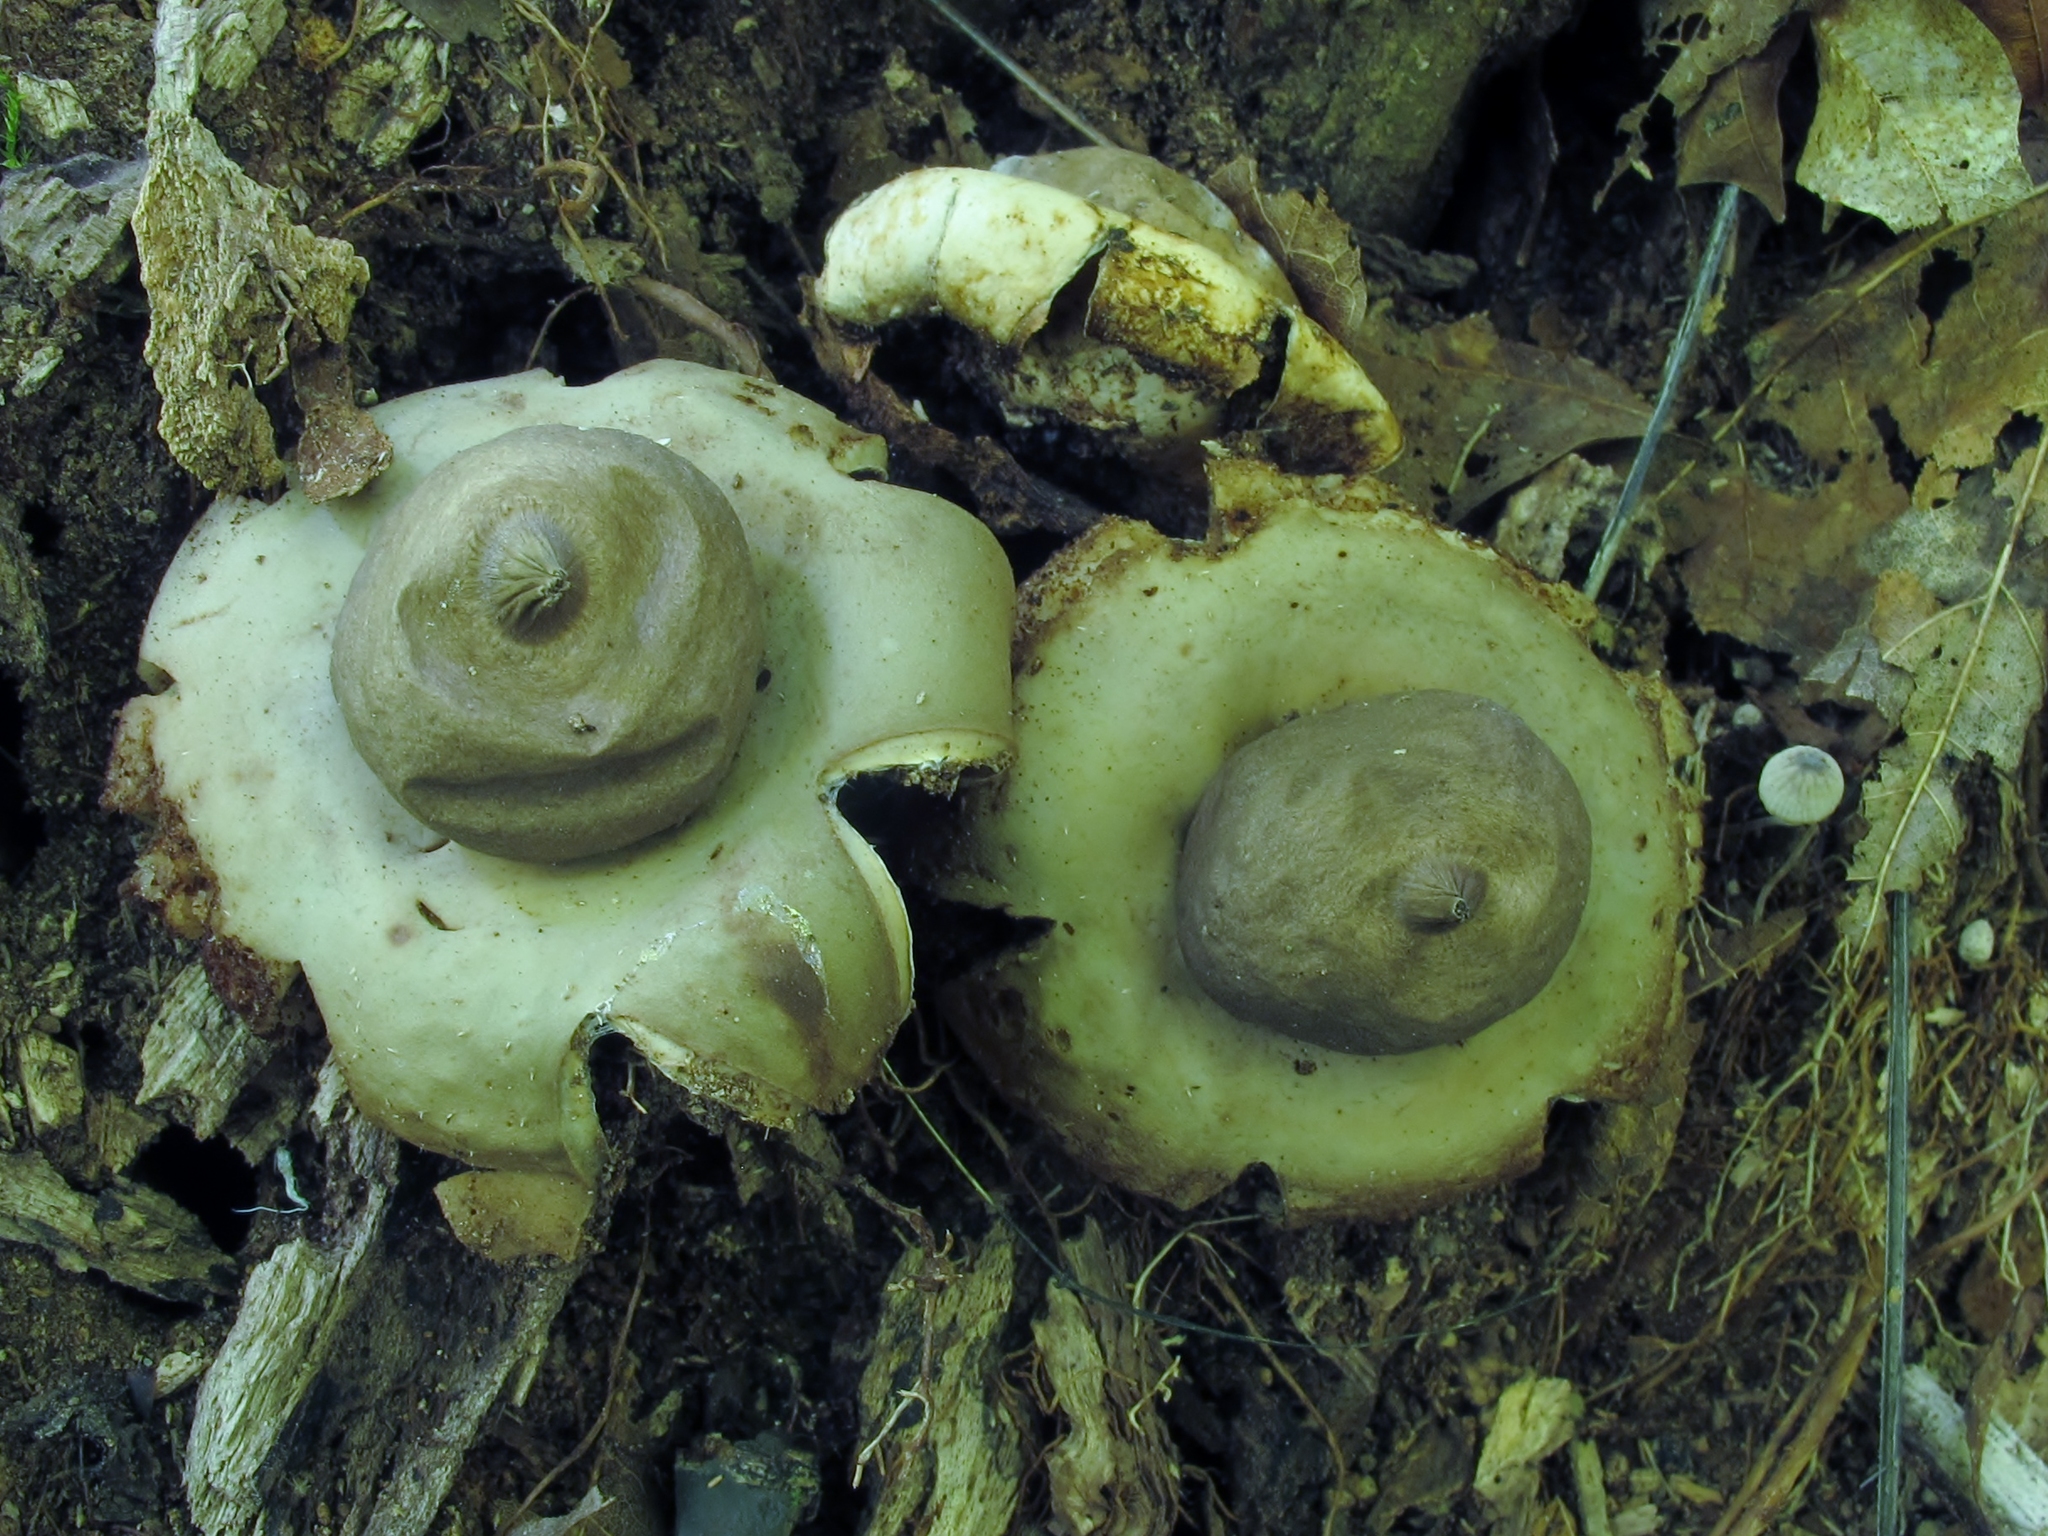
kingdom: Fungi
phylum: Basidiomycota
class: Agaricomycetes
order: Geastrales
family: Geastraceae
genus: Geastrum
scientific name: Geastrum saccatum
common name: Rounded earthstar
